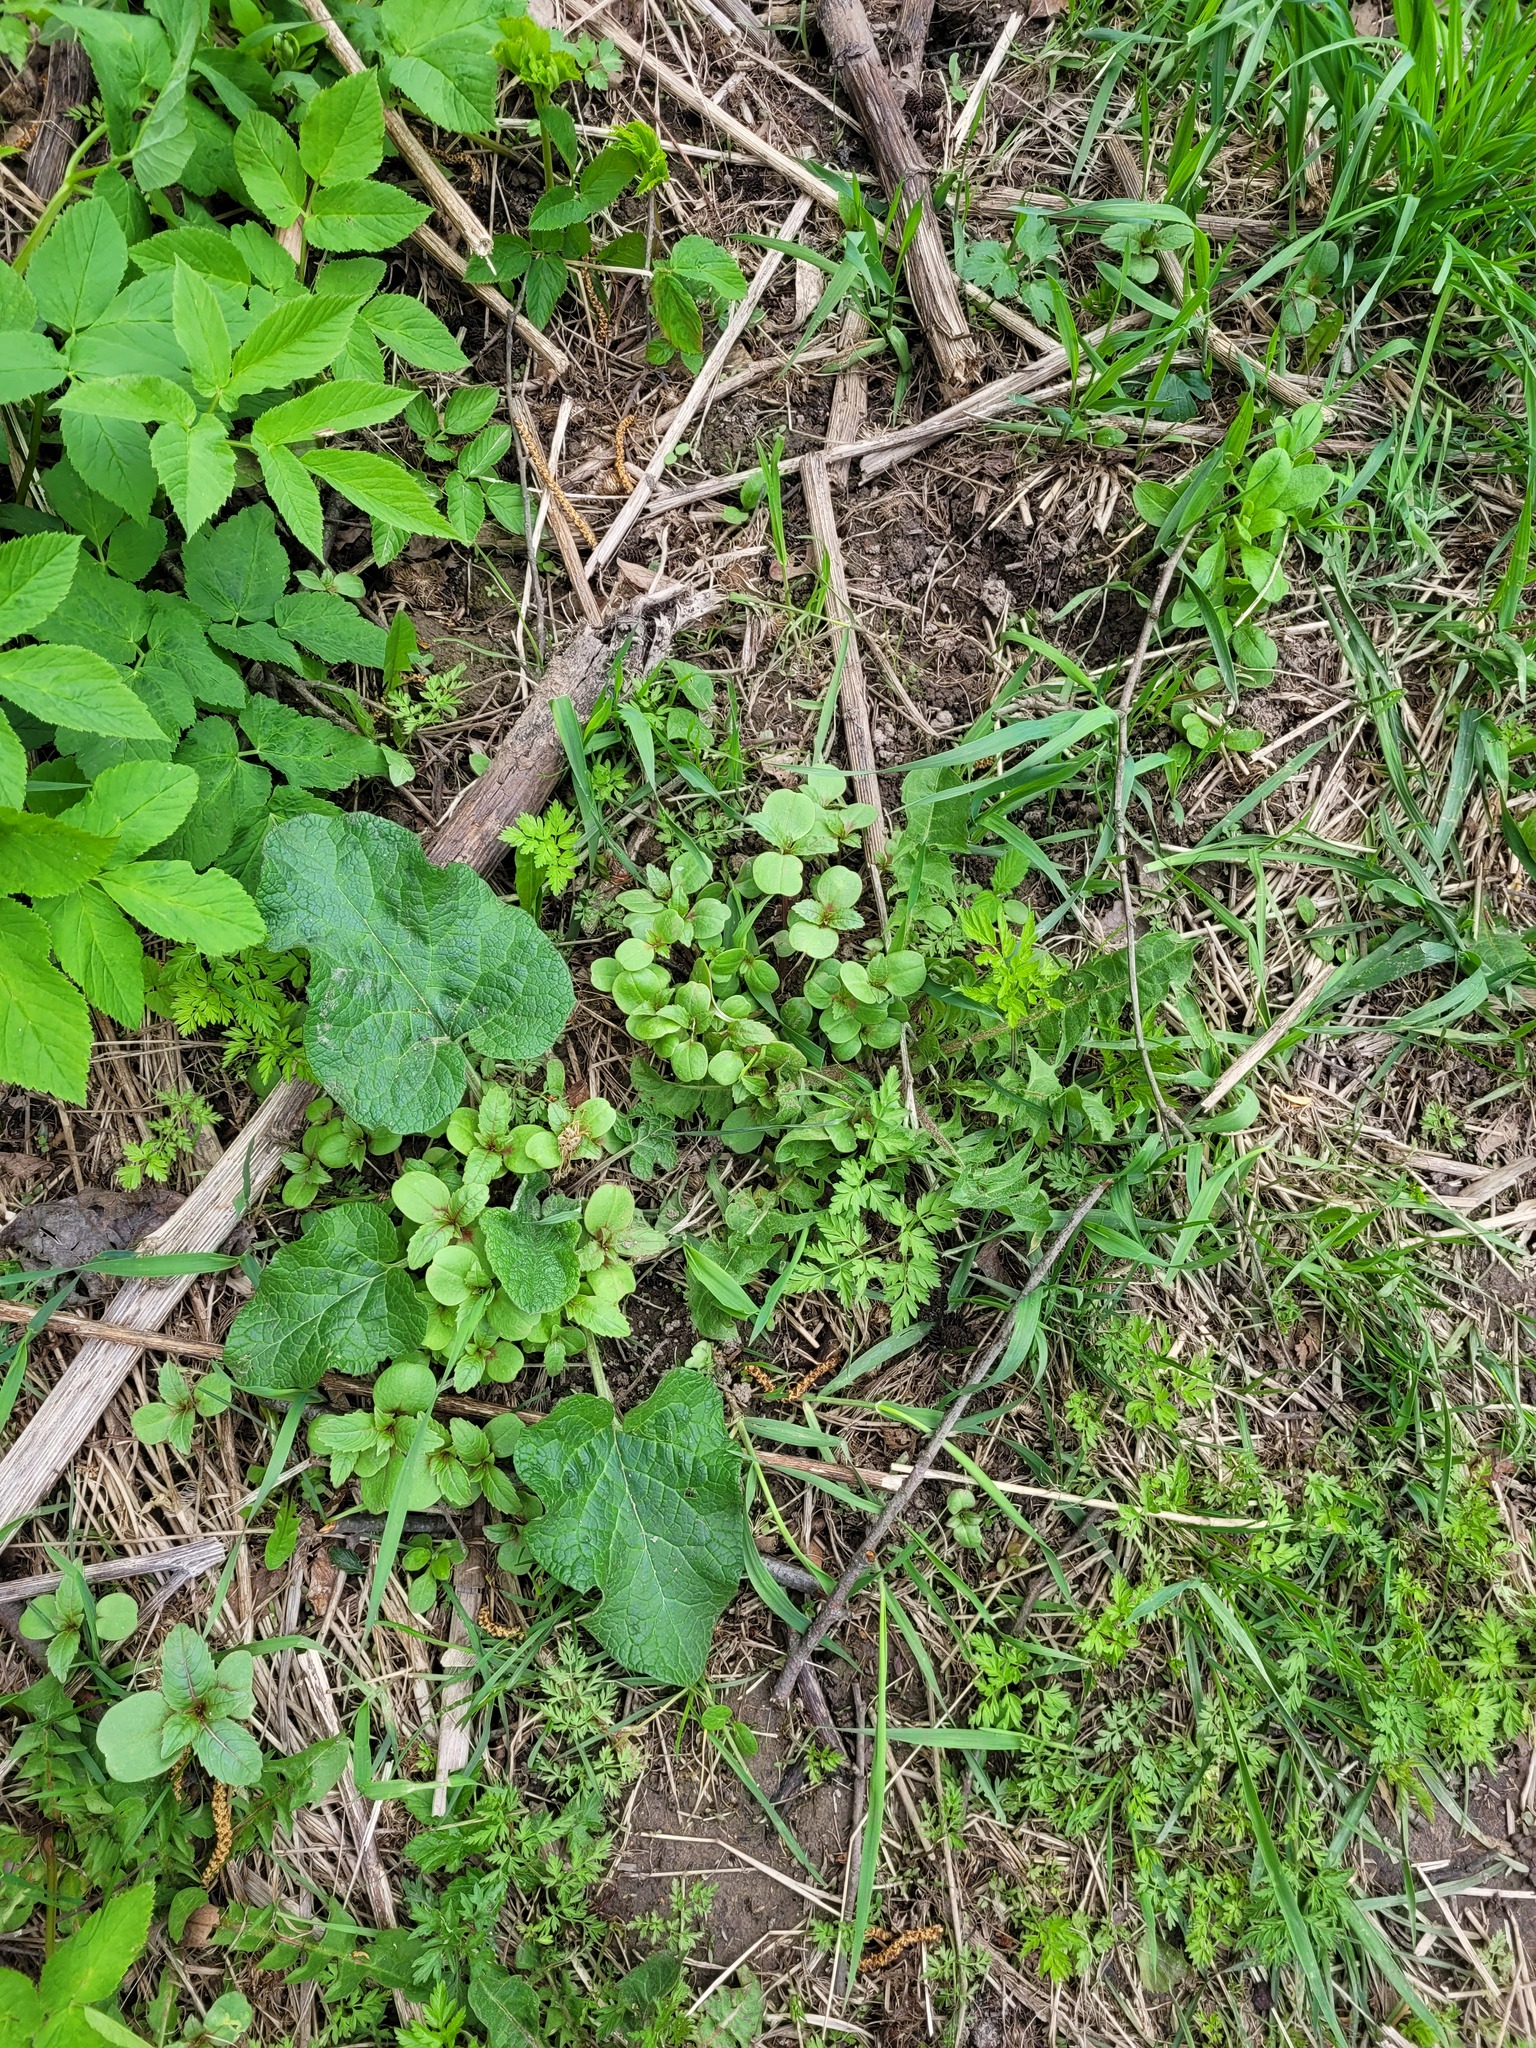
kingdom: Plantae
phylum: Tracheophyta
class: Magnoliopsida
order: Ericales
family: Balsaminaceae
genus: Impatiens
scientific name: Impatiens glandulifera
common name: Himalayan balsam
